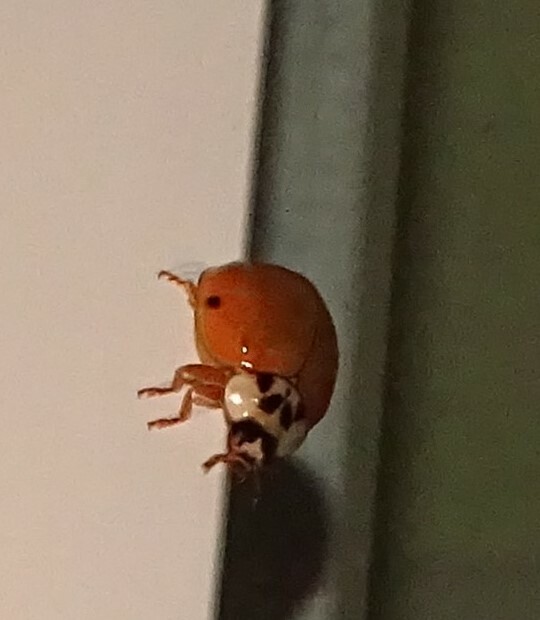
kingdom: Animalia
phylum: Arthropoda
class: Insecta
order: Coleoptera
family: Coccinellidae
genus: Harmonia
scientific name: Harmonia axyridis
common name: Harlequin ladybird
